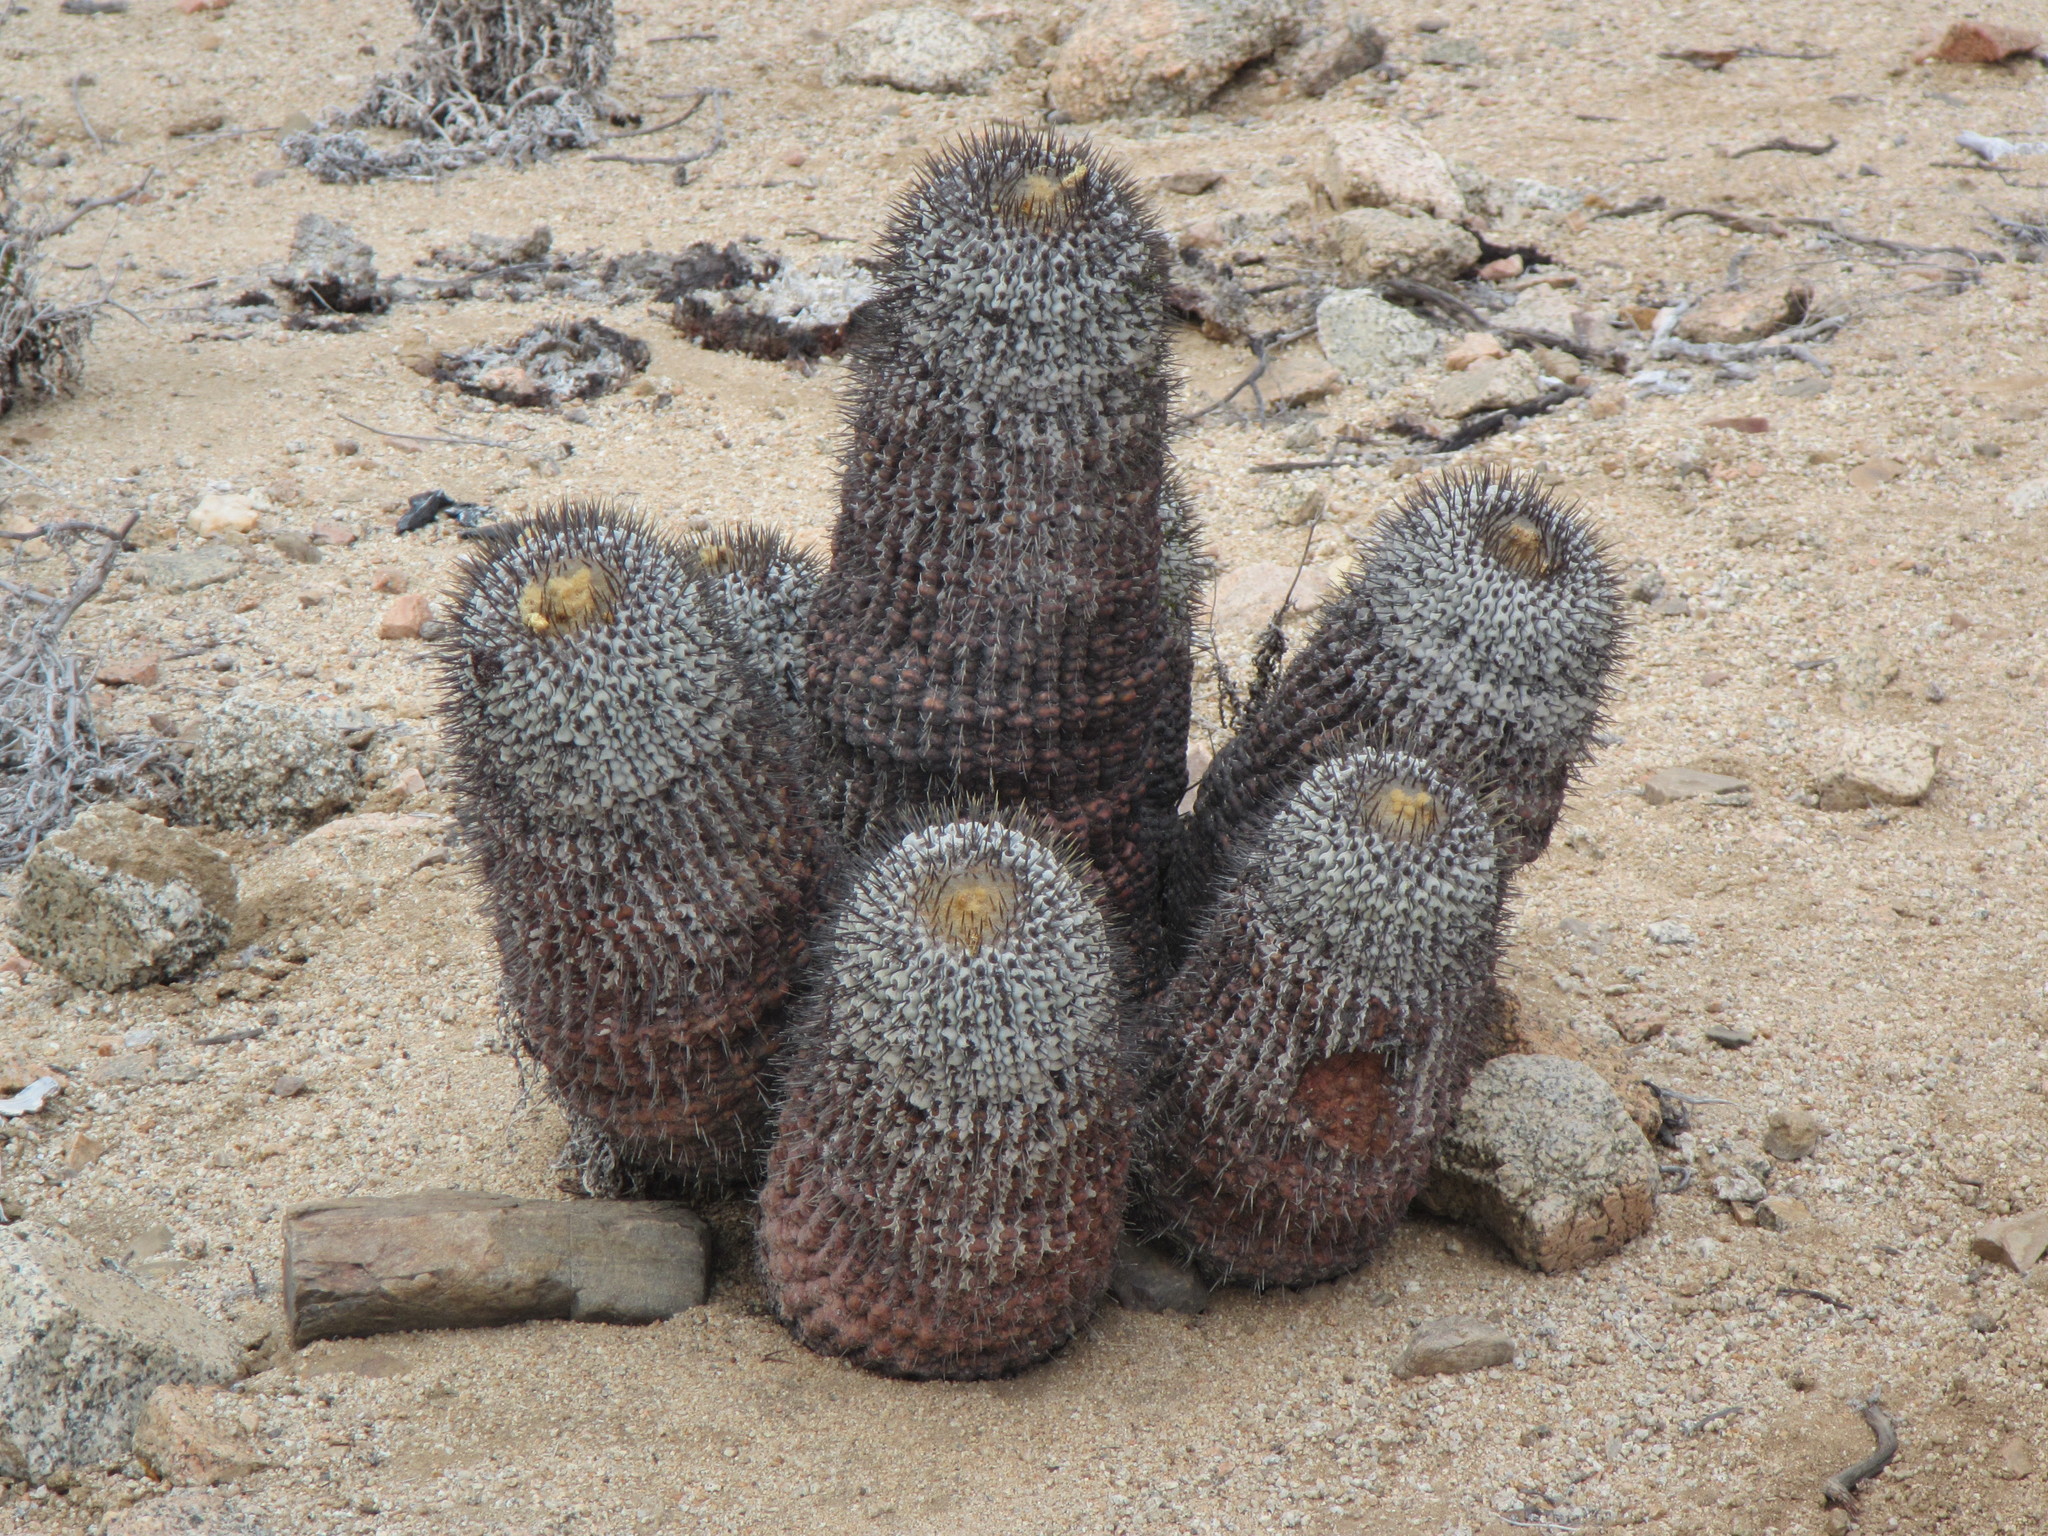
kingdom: Plantae
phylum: Tracheophyta
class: Magnoliopsida
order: Caryophyllales
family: Cactaceae
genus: Copiapoa
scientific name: Copiapoa cinerea
